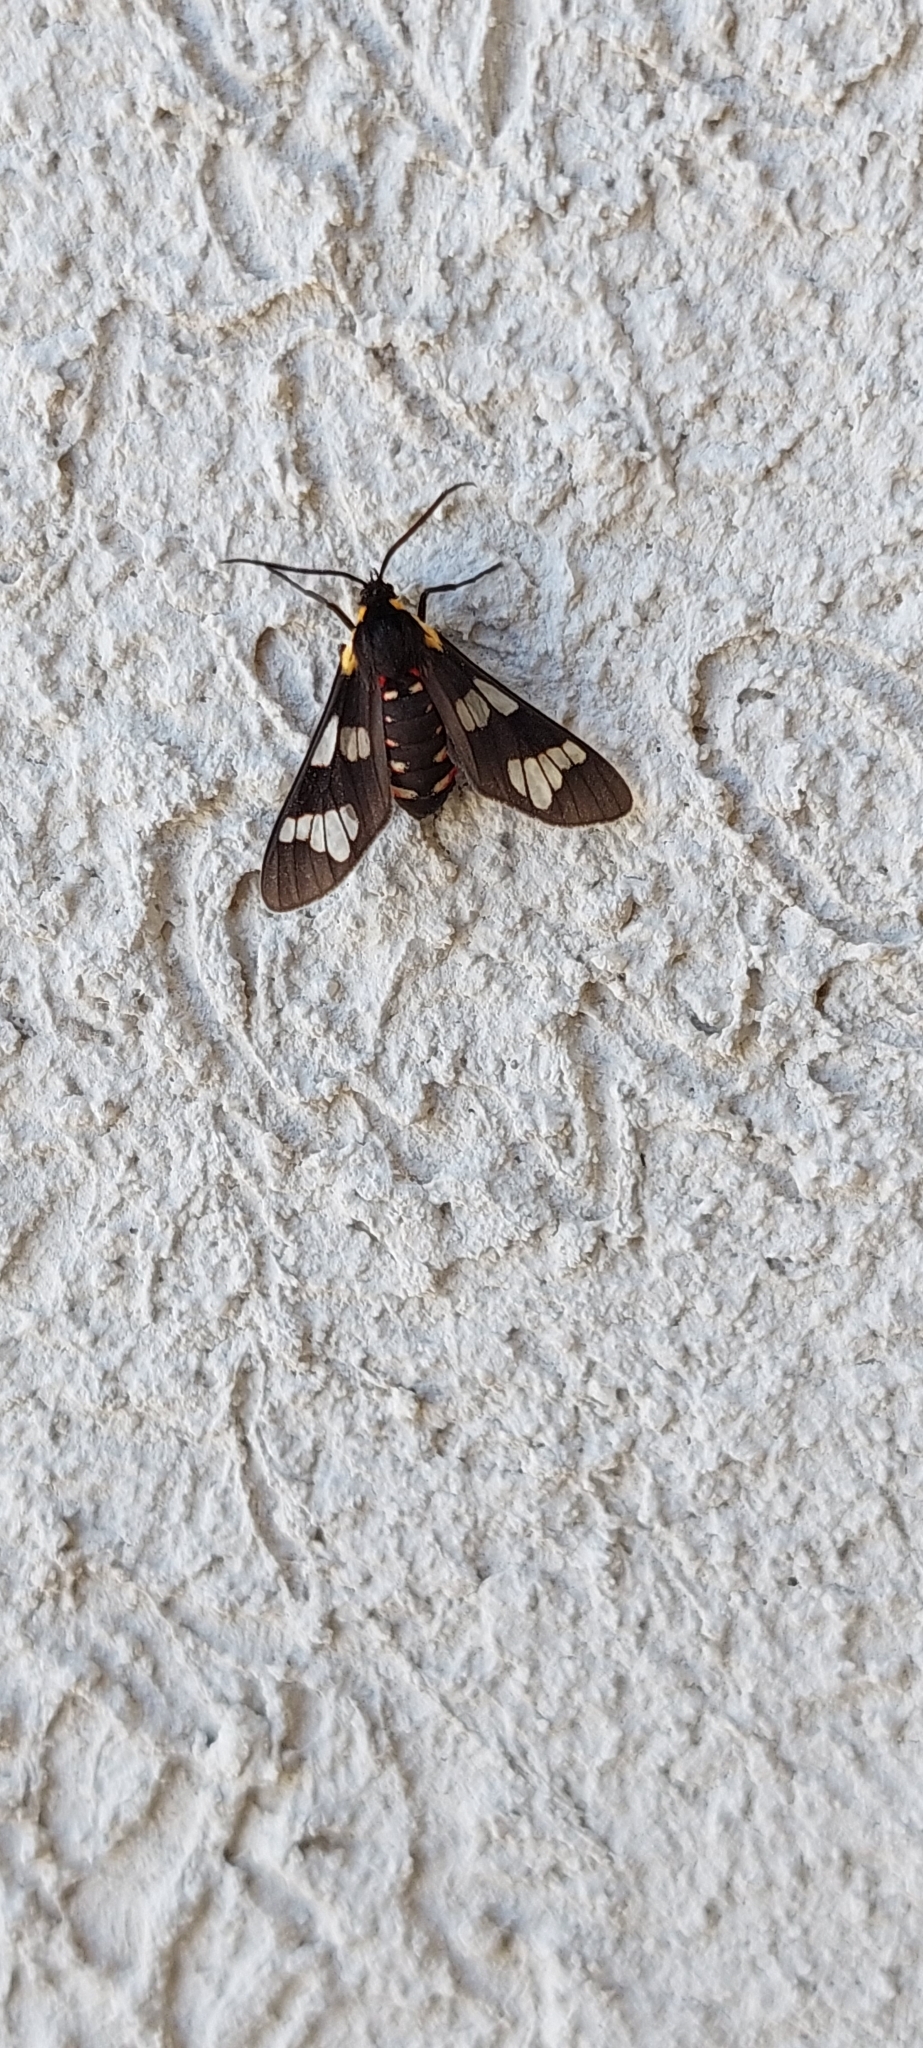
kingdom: Animalia
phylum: Arthropoda
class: Insecta
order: Lepidoptera
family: Erebidae
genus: Eurata
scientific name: Eurata hermione
